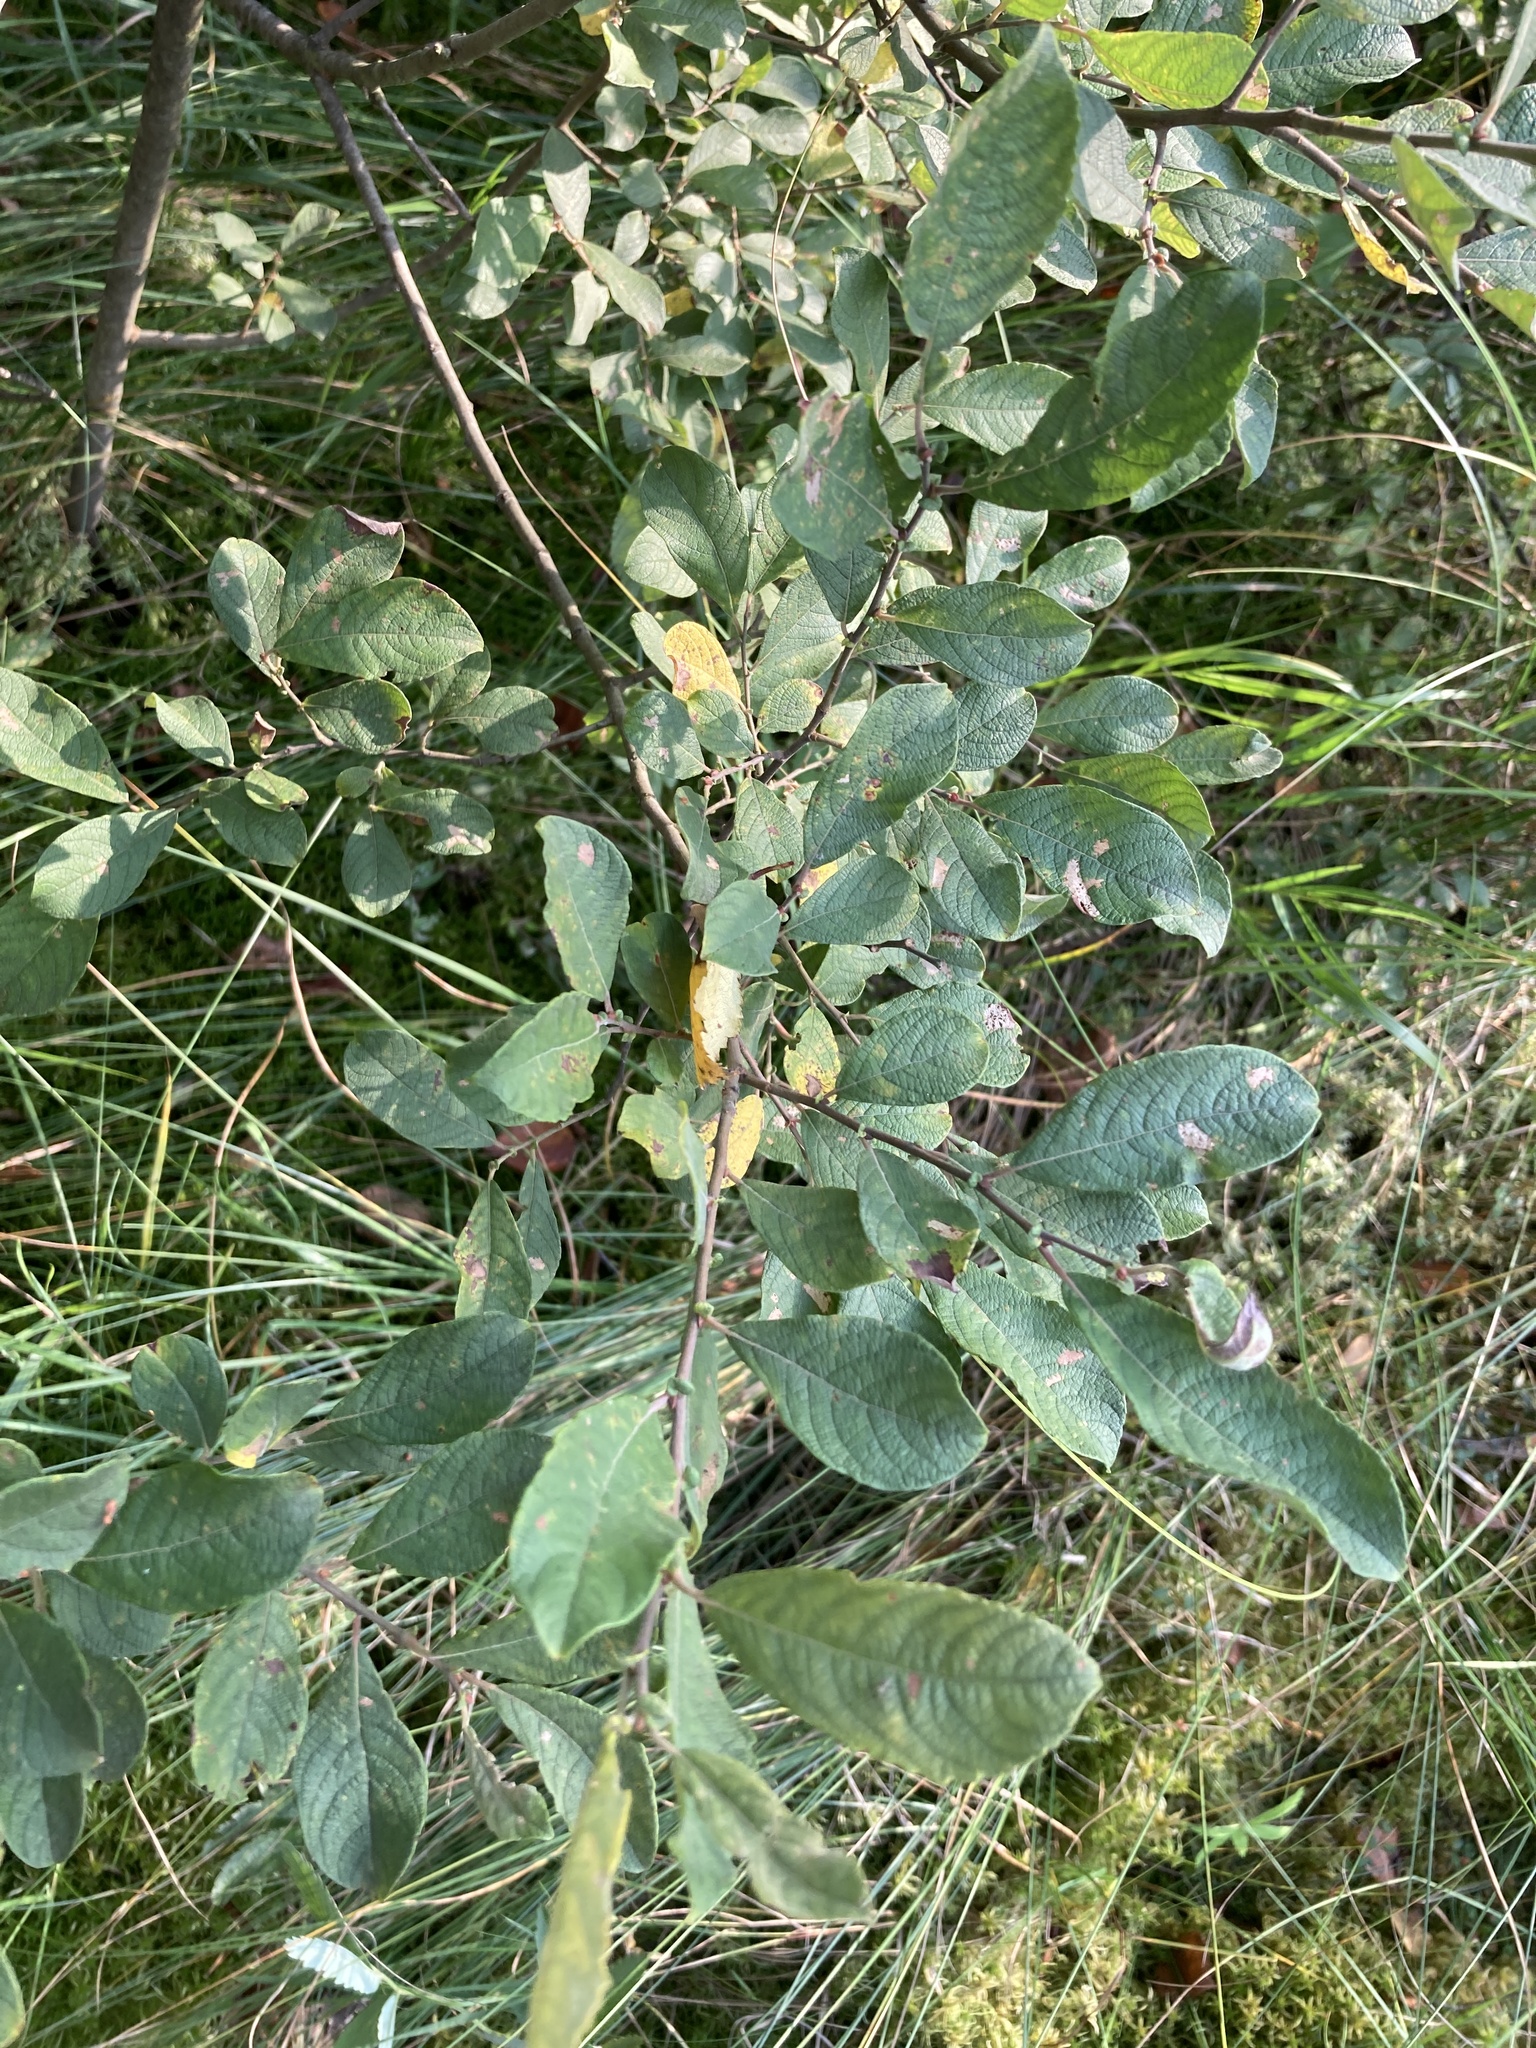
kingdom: Plantae
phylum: Tracheophyta
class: Magnoliopsida
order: Malpighiales
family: Salicaceae
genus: Salix
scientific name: Salix aurita
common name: Eared willow
